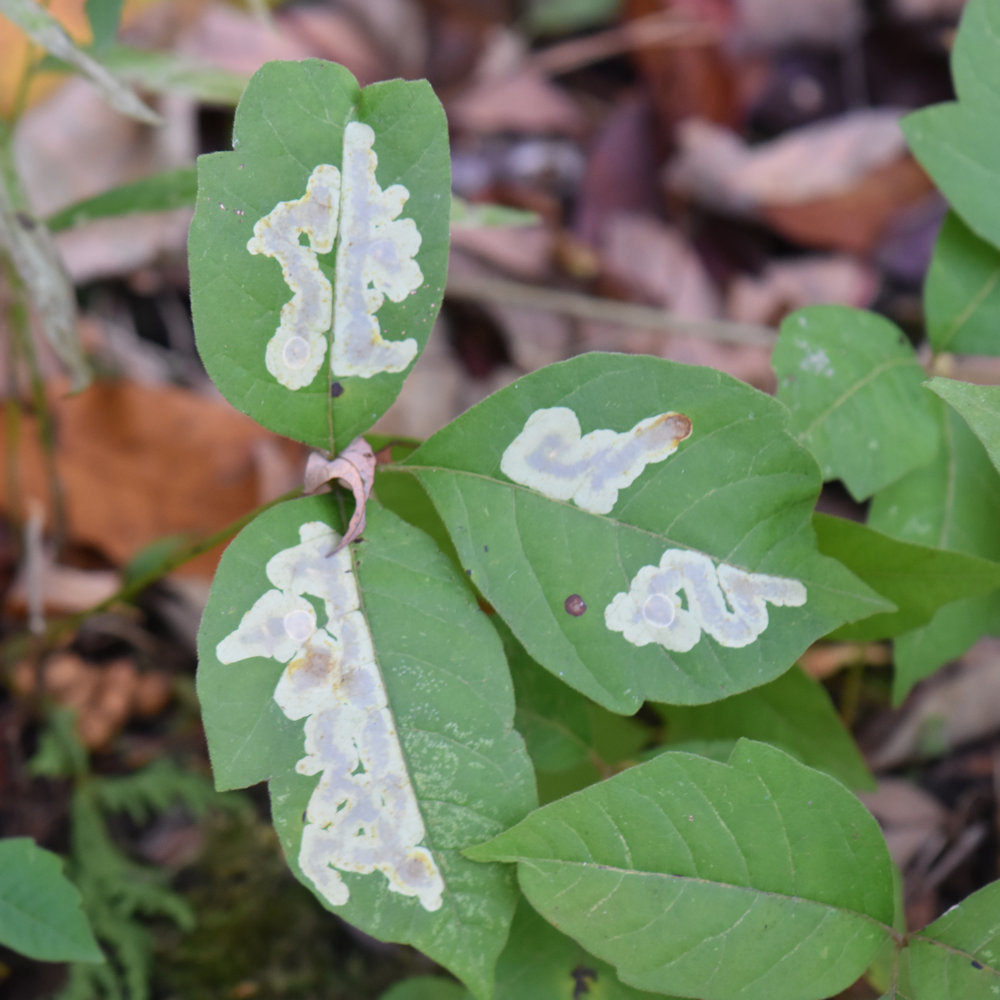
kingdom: Animalia
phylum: Arthropoda
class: Insecta
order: Lepidoptera
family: Gracillariidae
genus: Cameraria
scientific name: Cameraria guttifinitella
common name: Poison ivy leaf-miner moth
